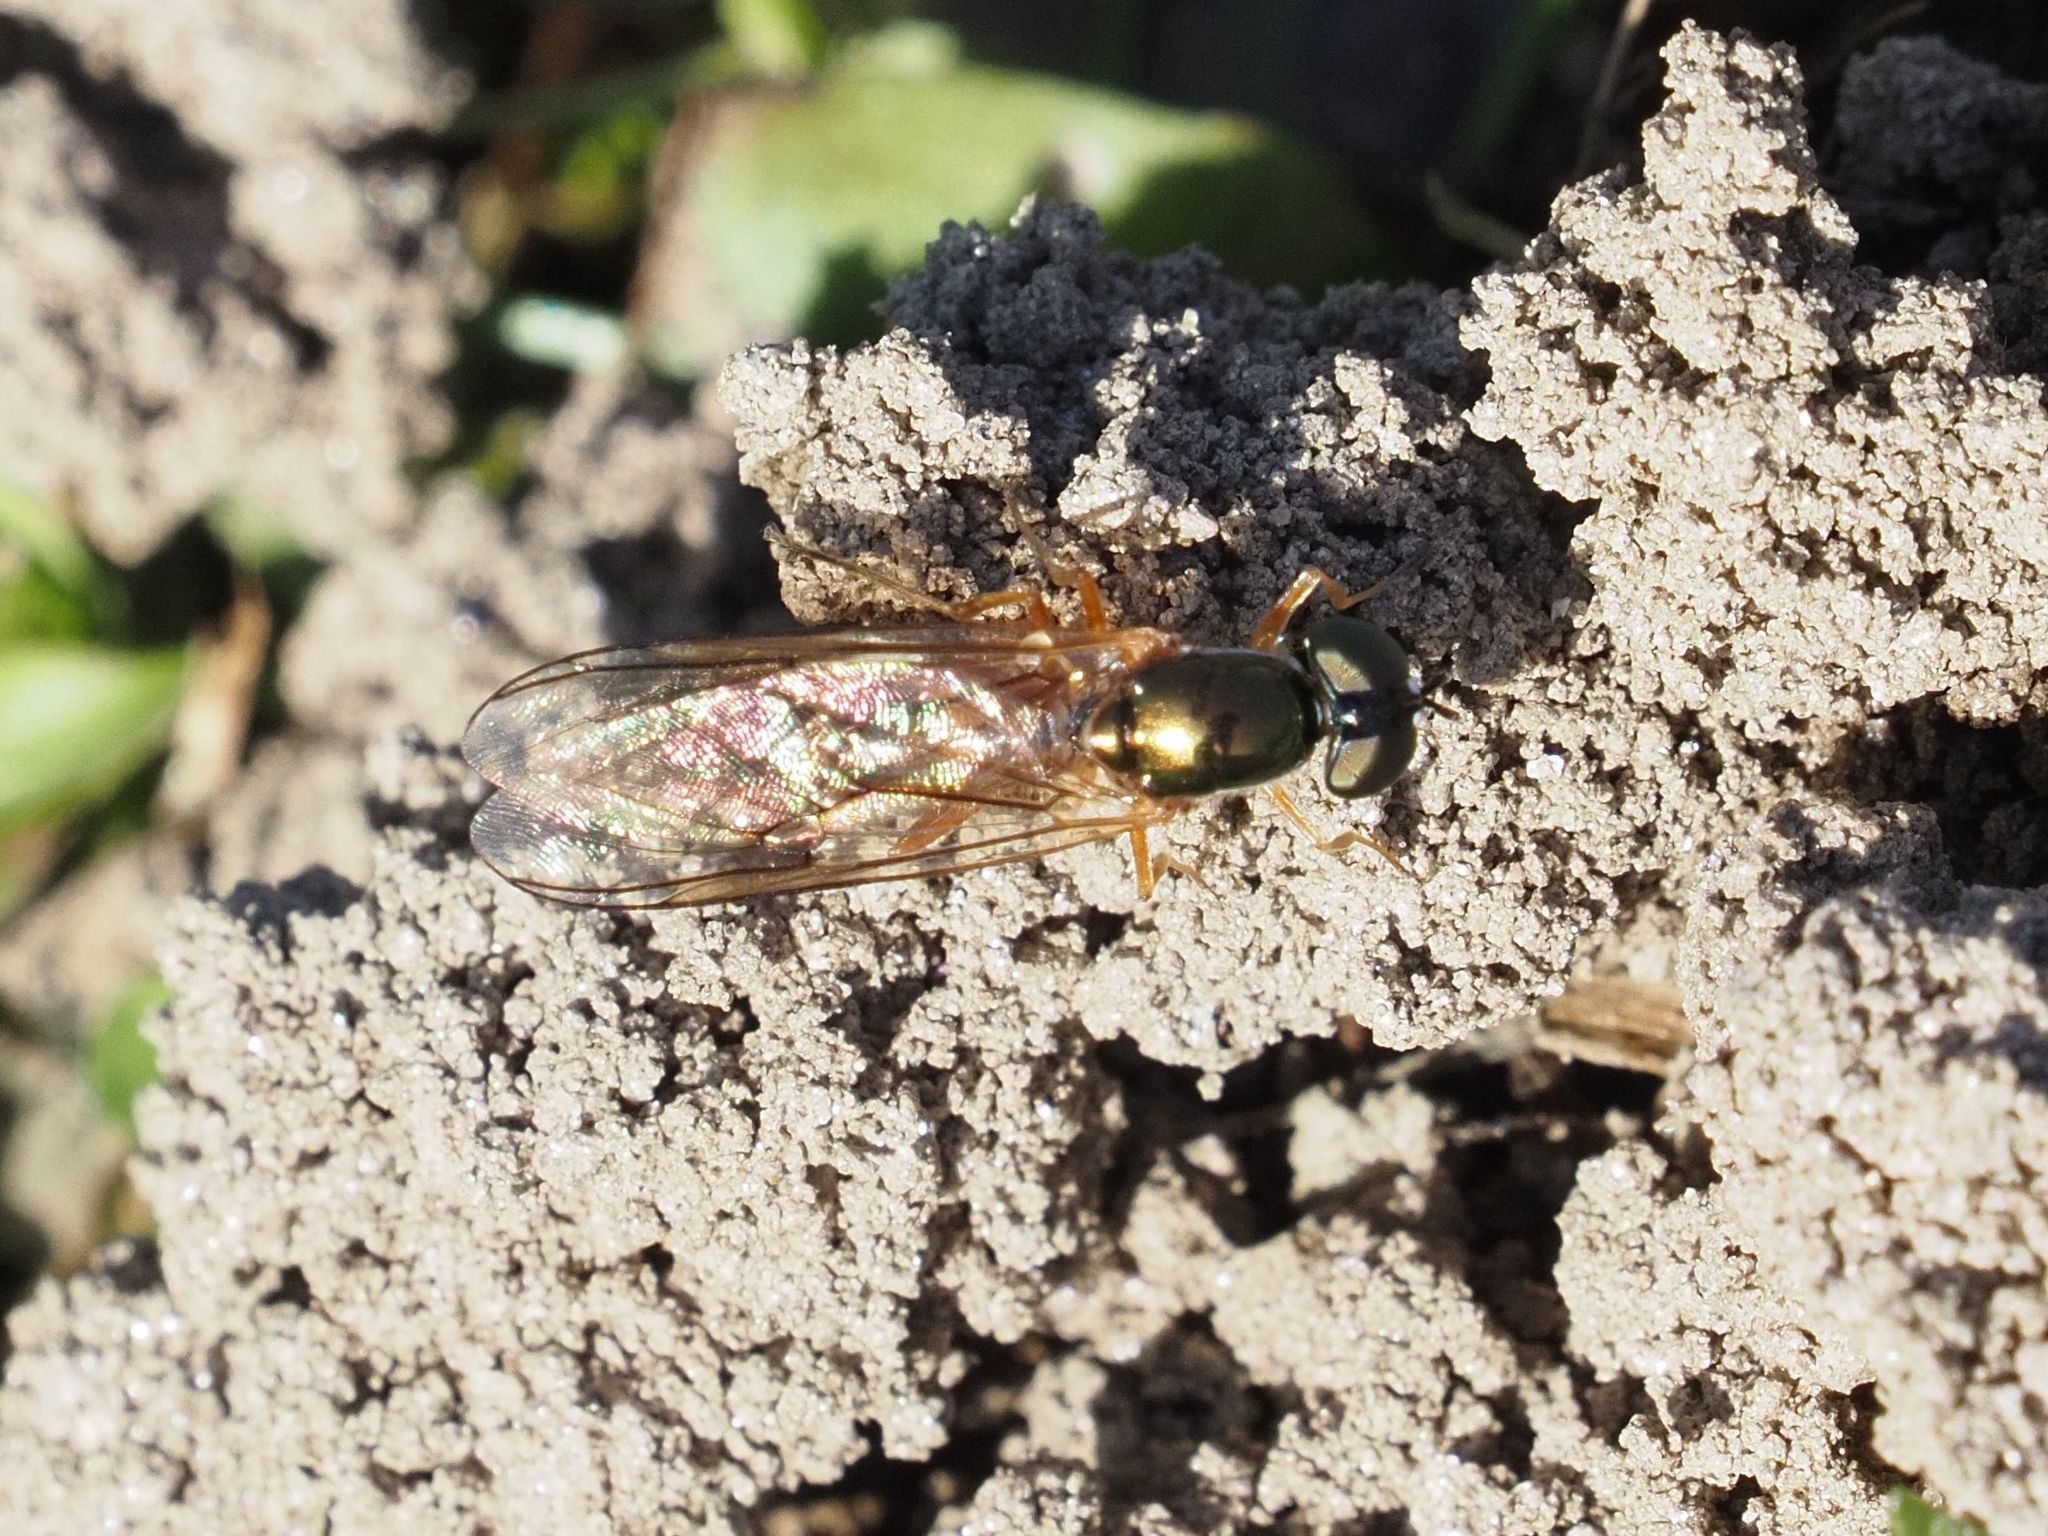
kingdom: Animalia
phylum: Arthropoda
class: Insecta
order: Diptera
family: Stratiomyidae
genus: Sargus
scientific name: Sargus bipunctatus
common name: Twin-spot centurion
